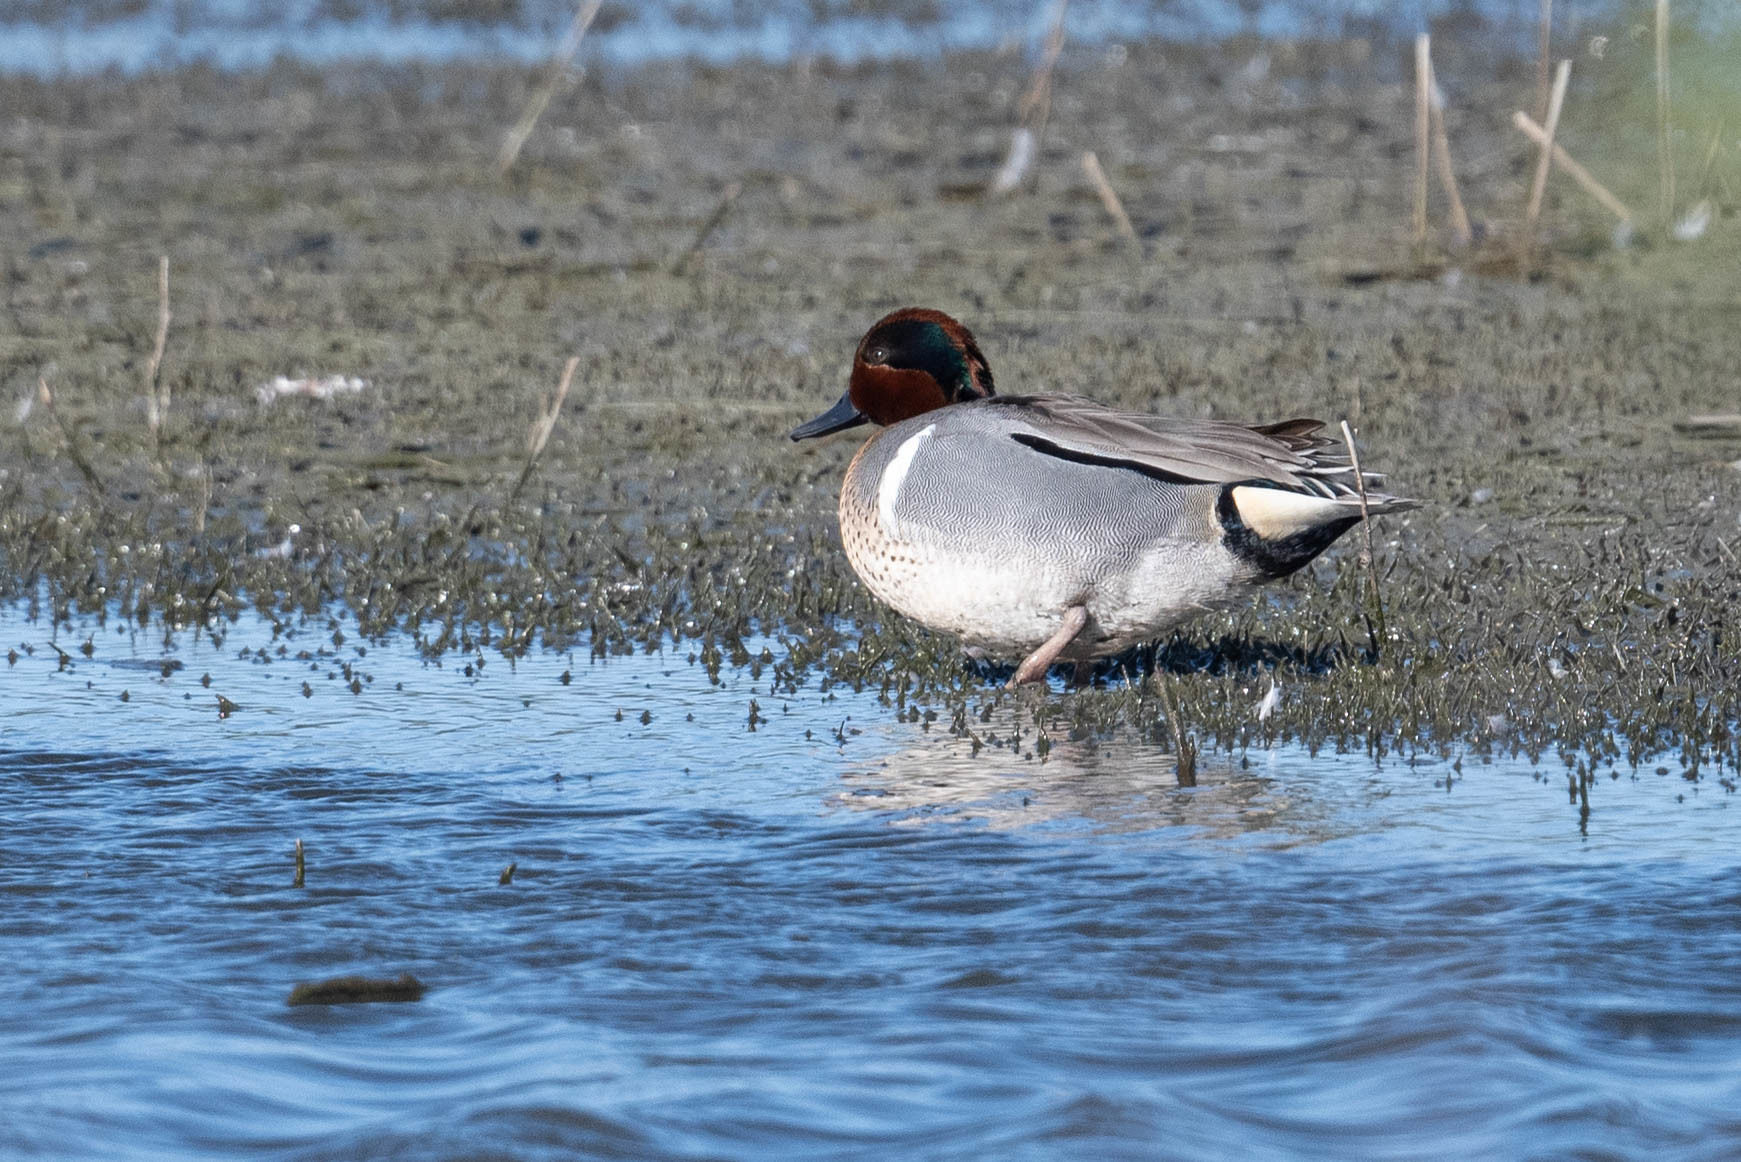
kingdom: Animalia
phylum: Chordata
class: Aves
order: Anseriformes
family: Anatidae
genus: Anas
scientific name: Anas crecca
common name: Eurasian teal
